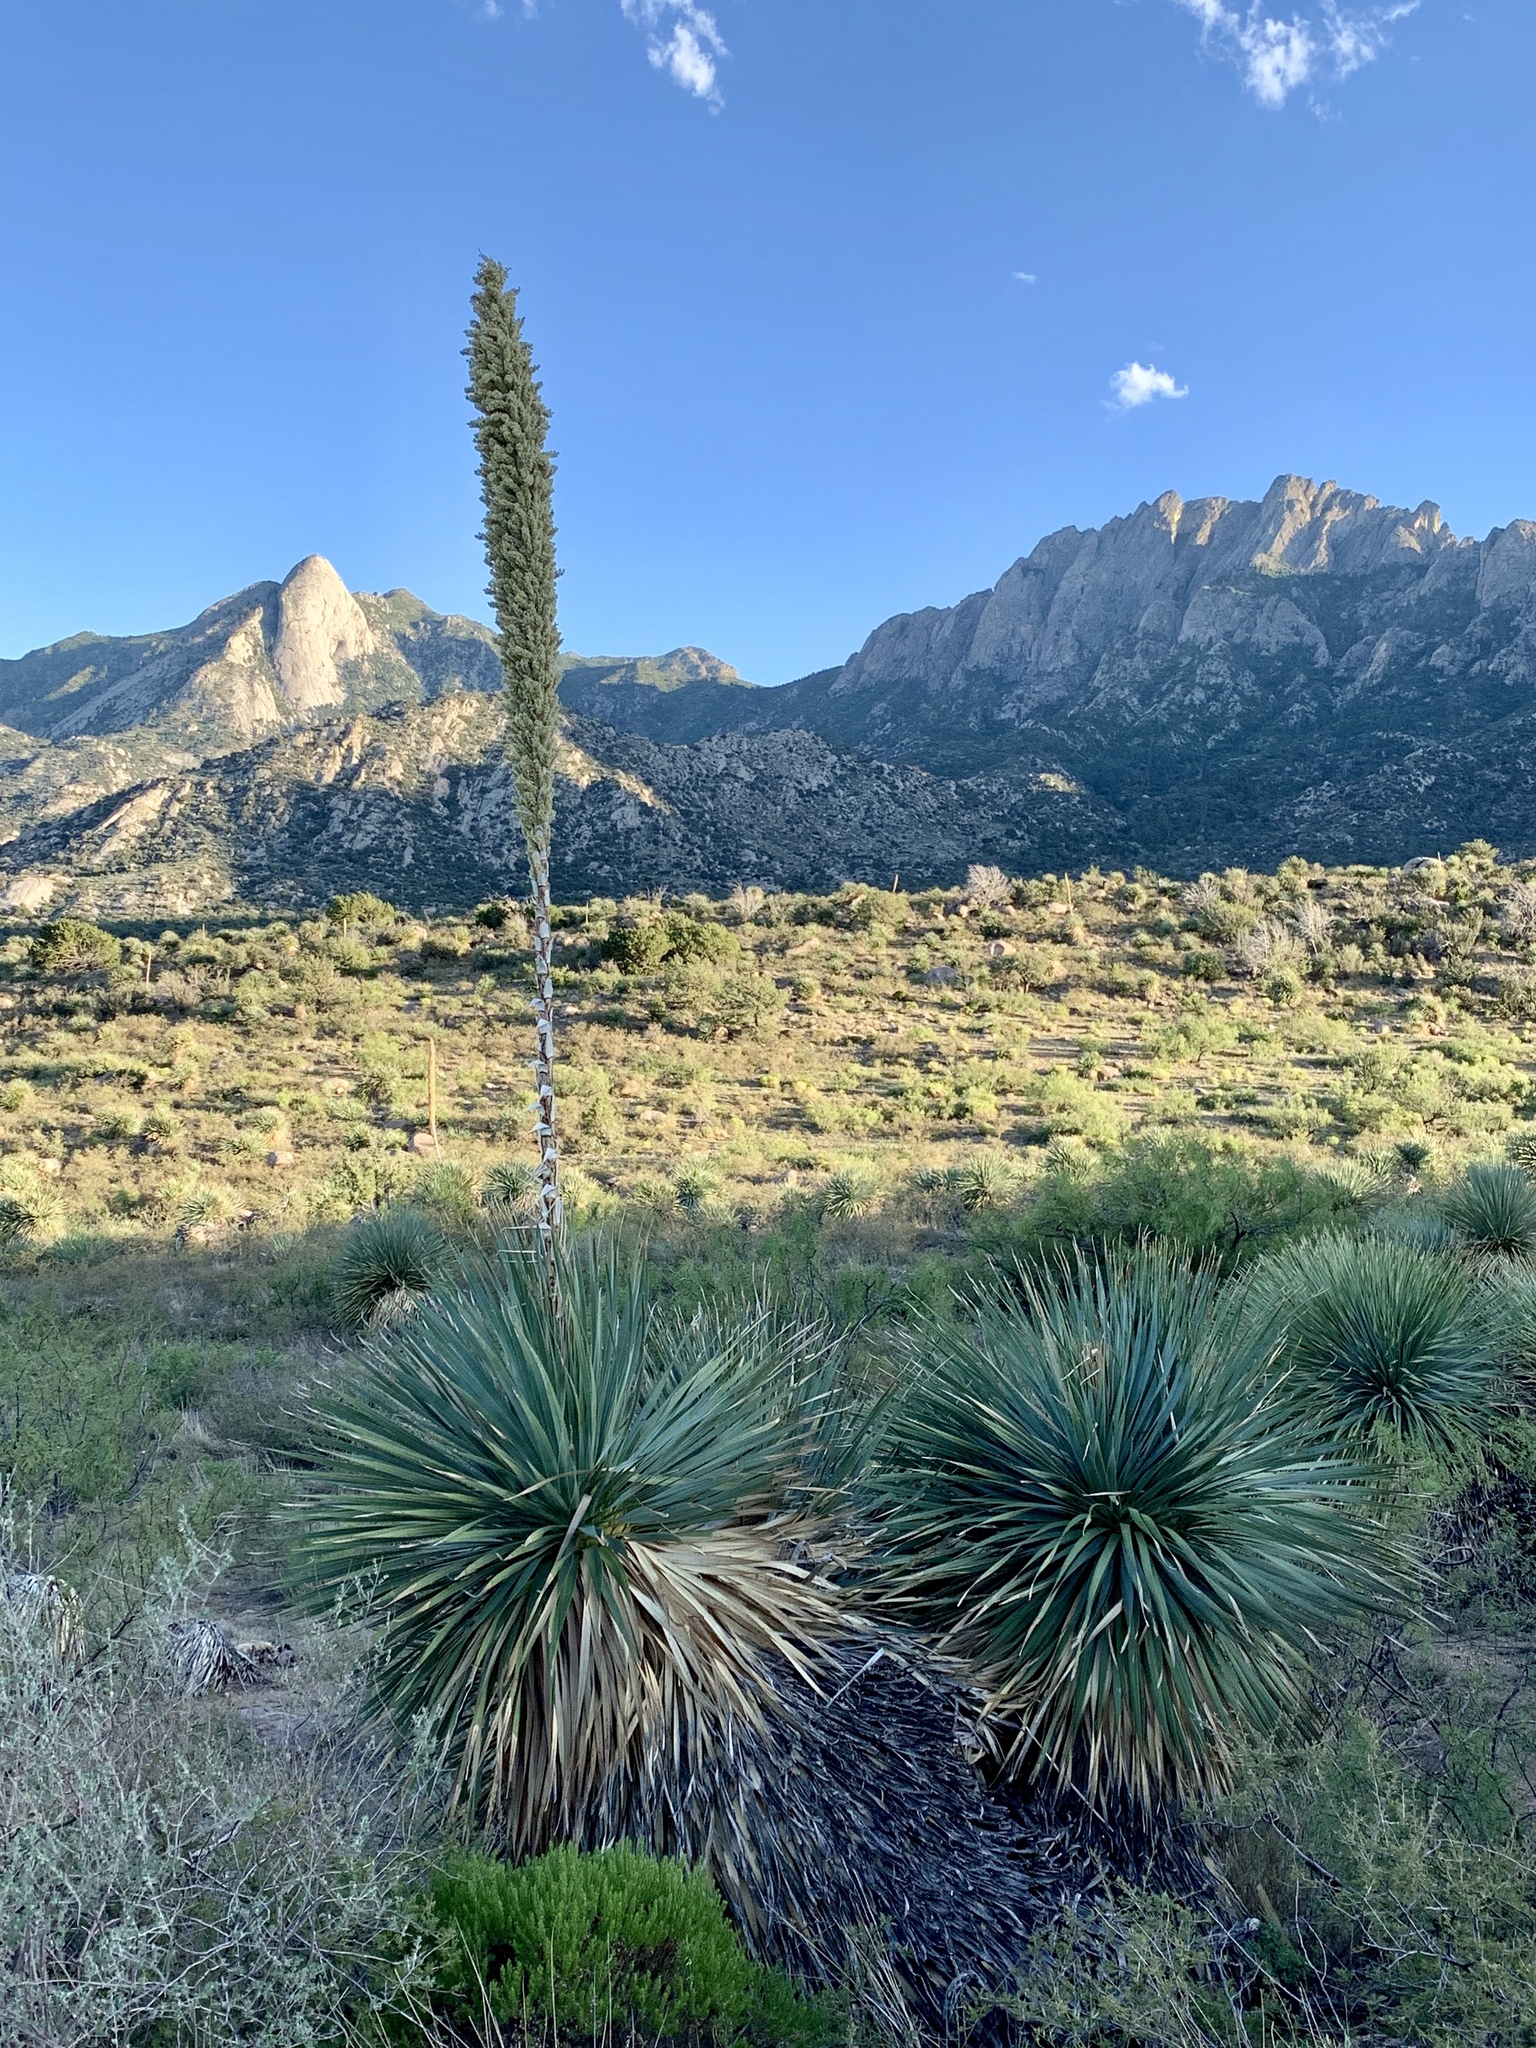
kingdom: Plantae
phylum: Tracheophyta
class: Liliopsida
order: Asparagales
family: Asparagaceae
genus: Dasylirion
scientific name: Dasylirion wheeleri
